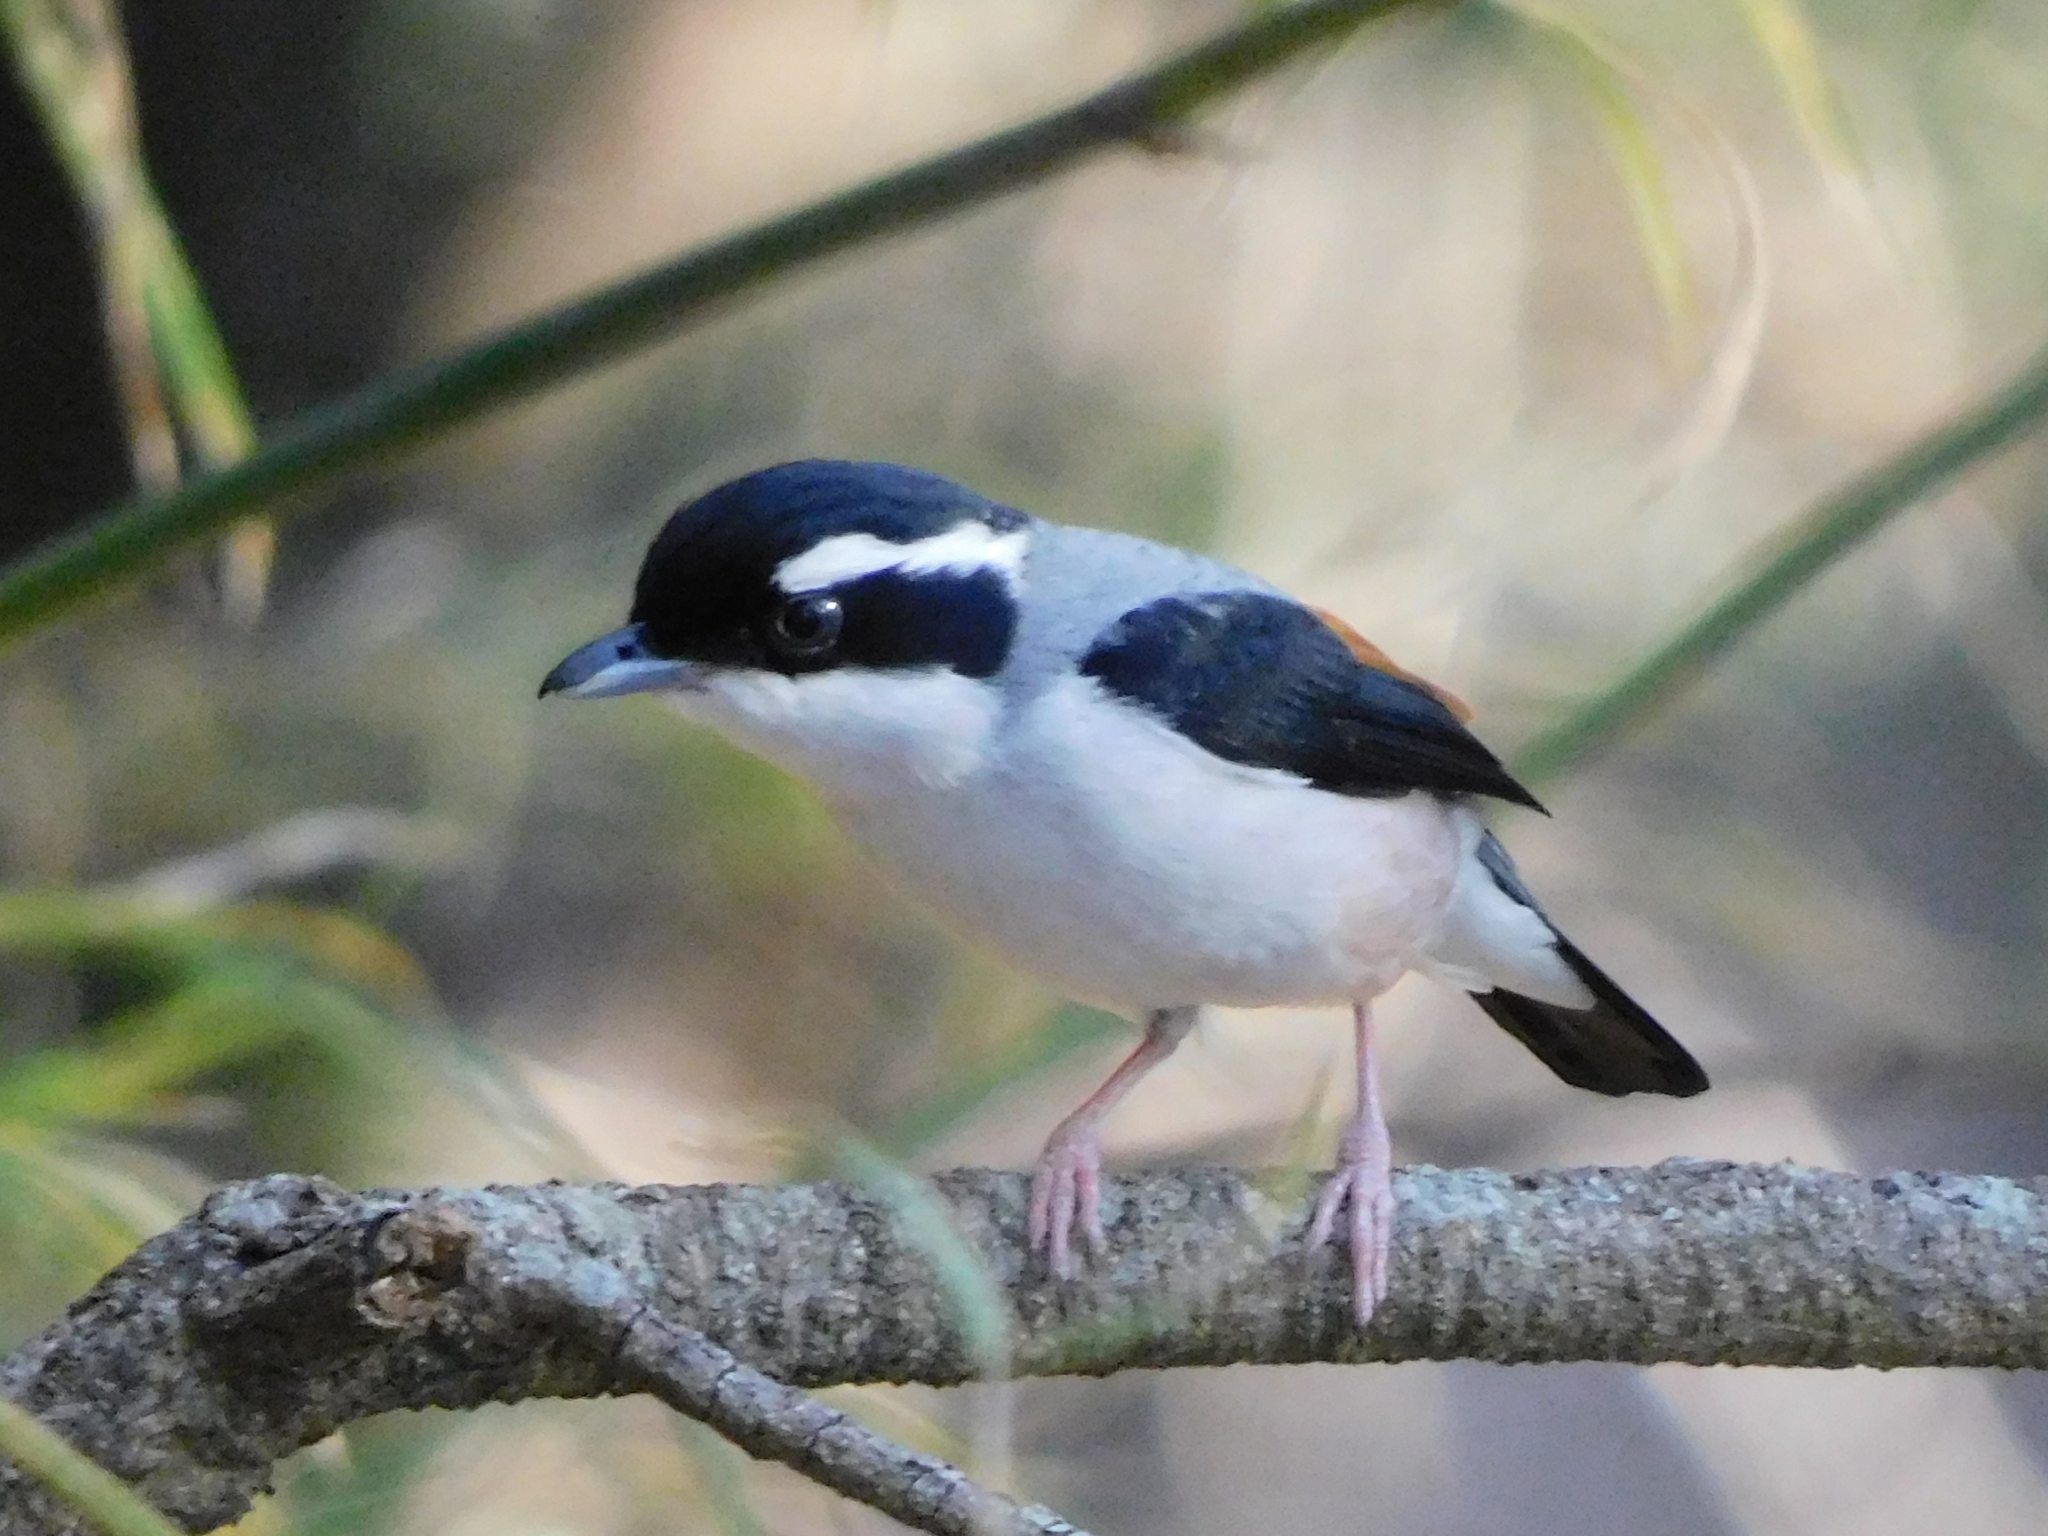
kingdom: Animalia
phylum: Chordata
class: Aves
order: Passeriformes
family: Vireonidae
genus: Pteruthius
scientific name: Pteruthius aeralatus
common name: Blyth's shrike-babbler
